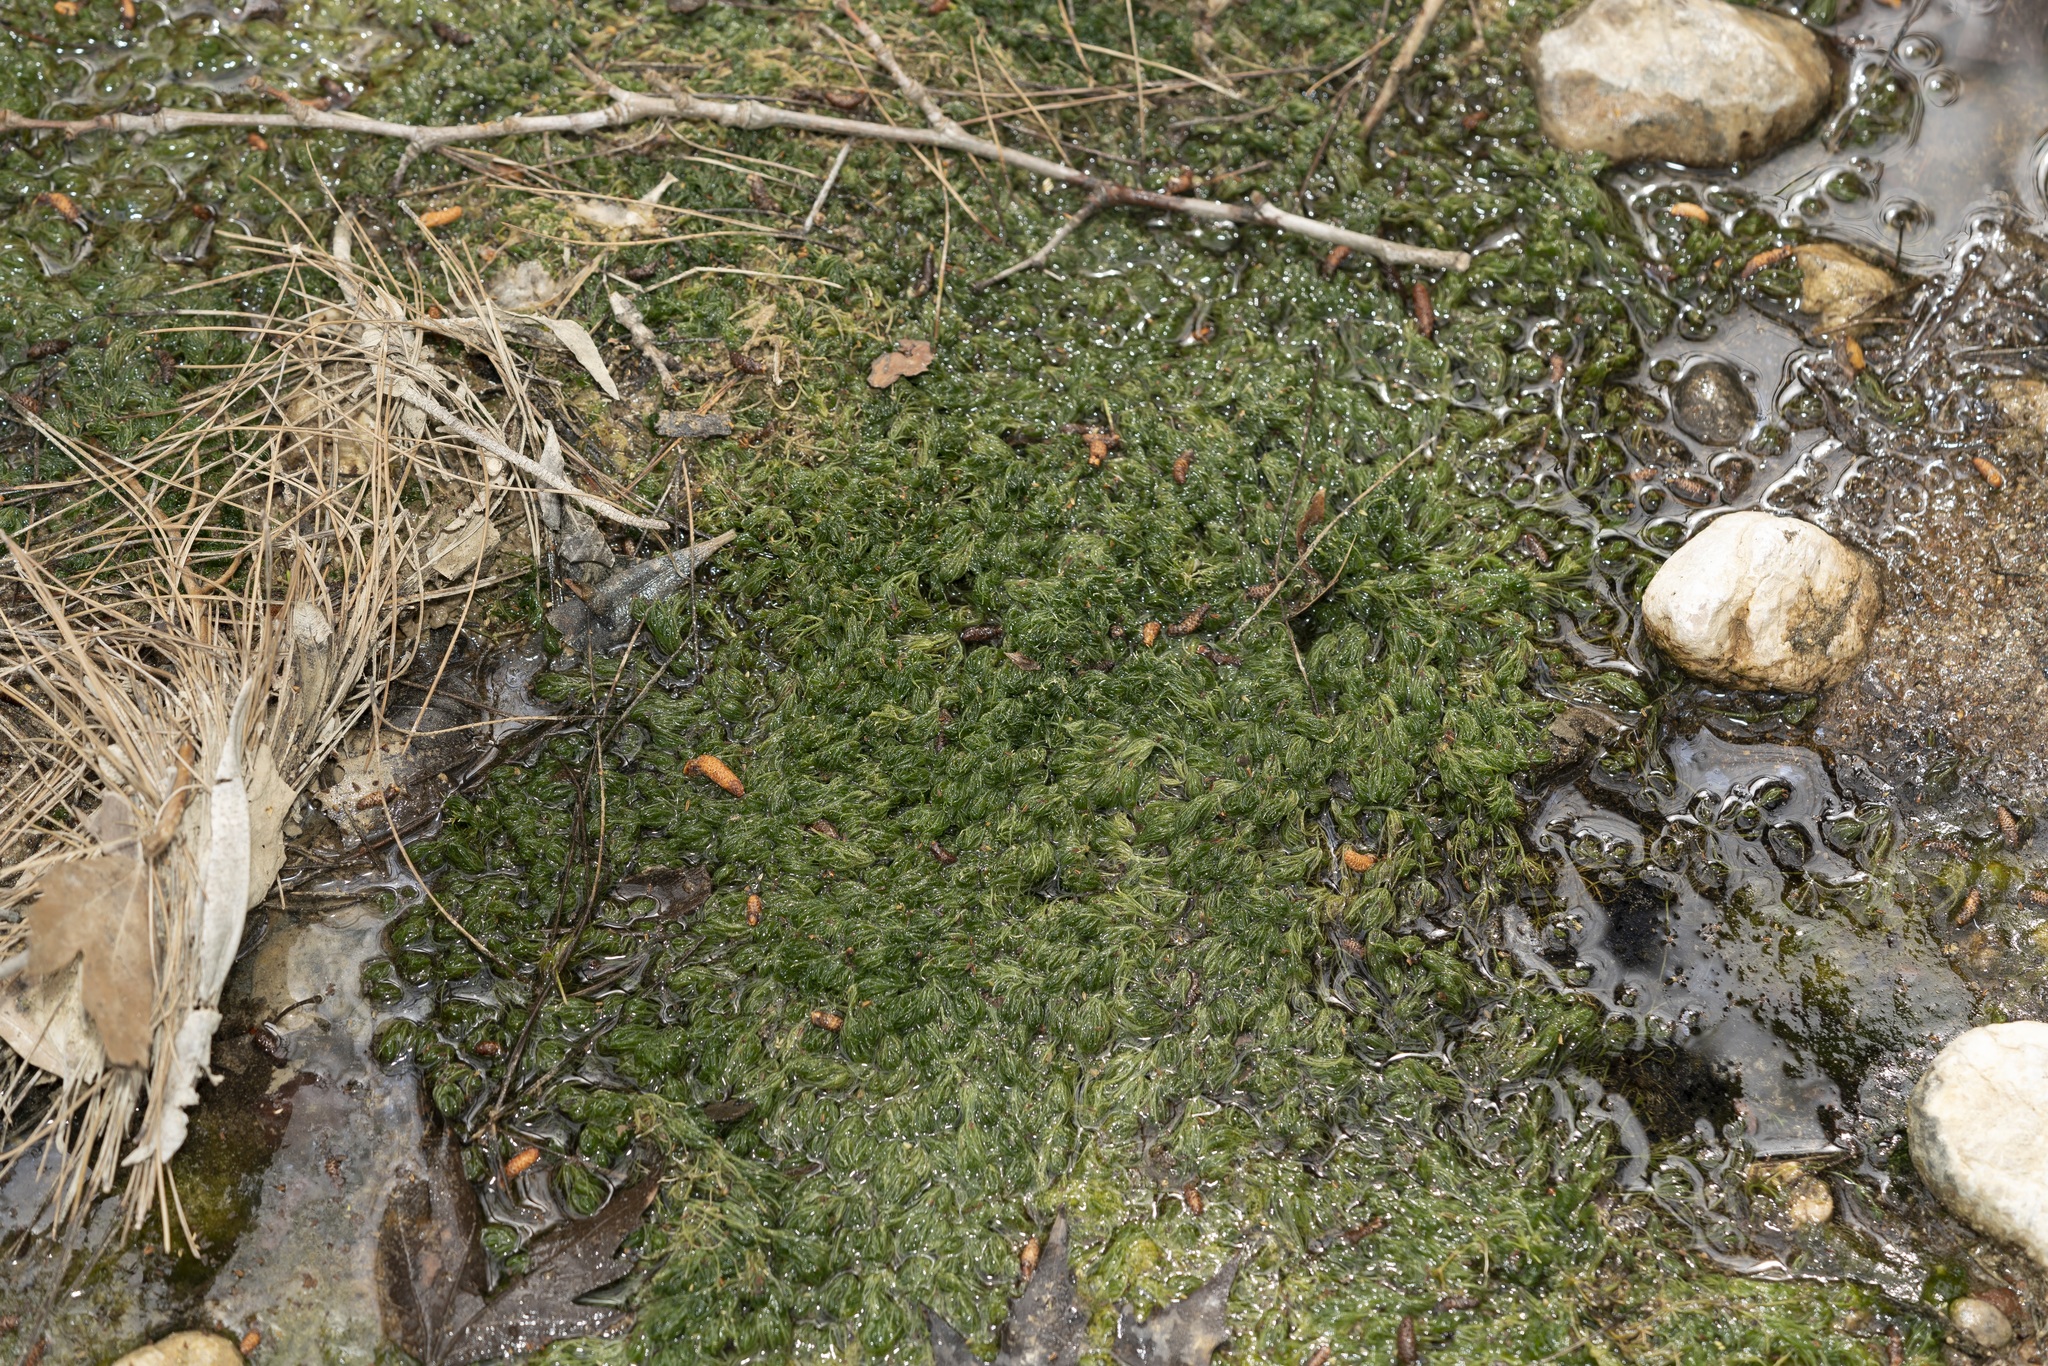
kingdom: Plantae
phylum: Charophyta
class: Charophyceae
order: Charales
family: Characeae
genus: Chara
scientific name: Chara vulgaris
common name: Common stonewort
